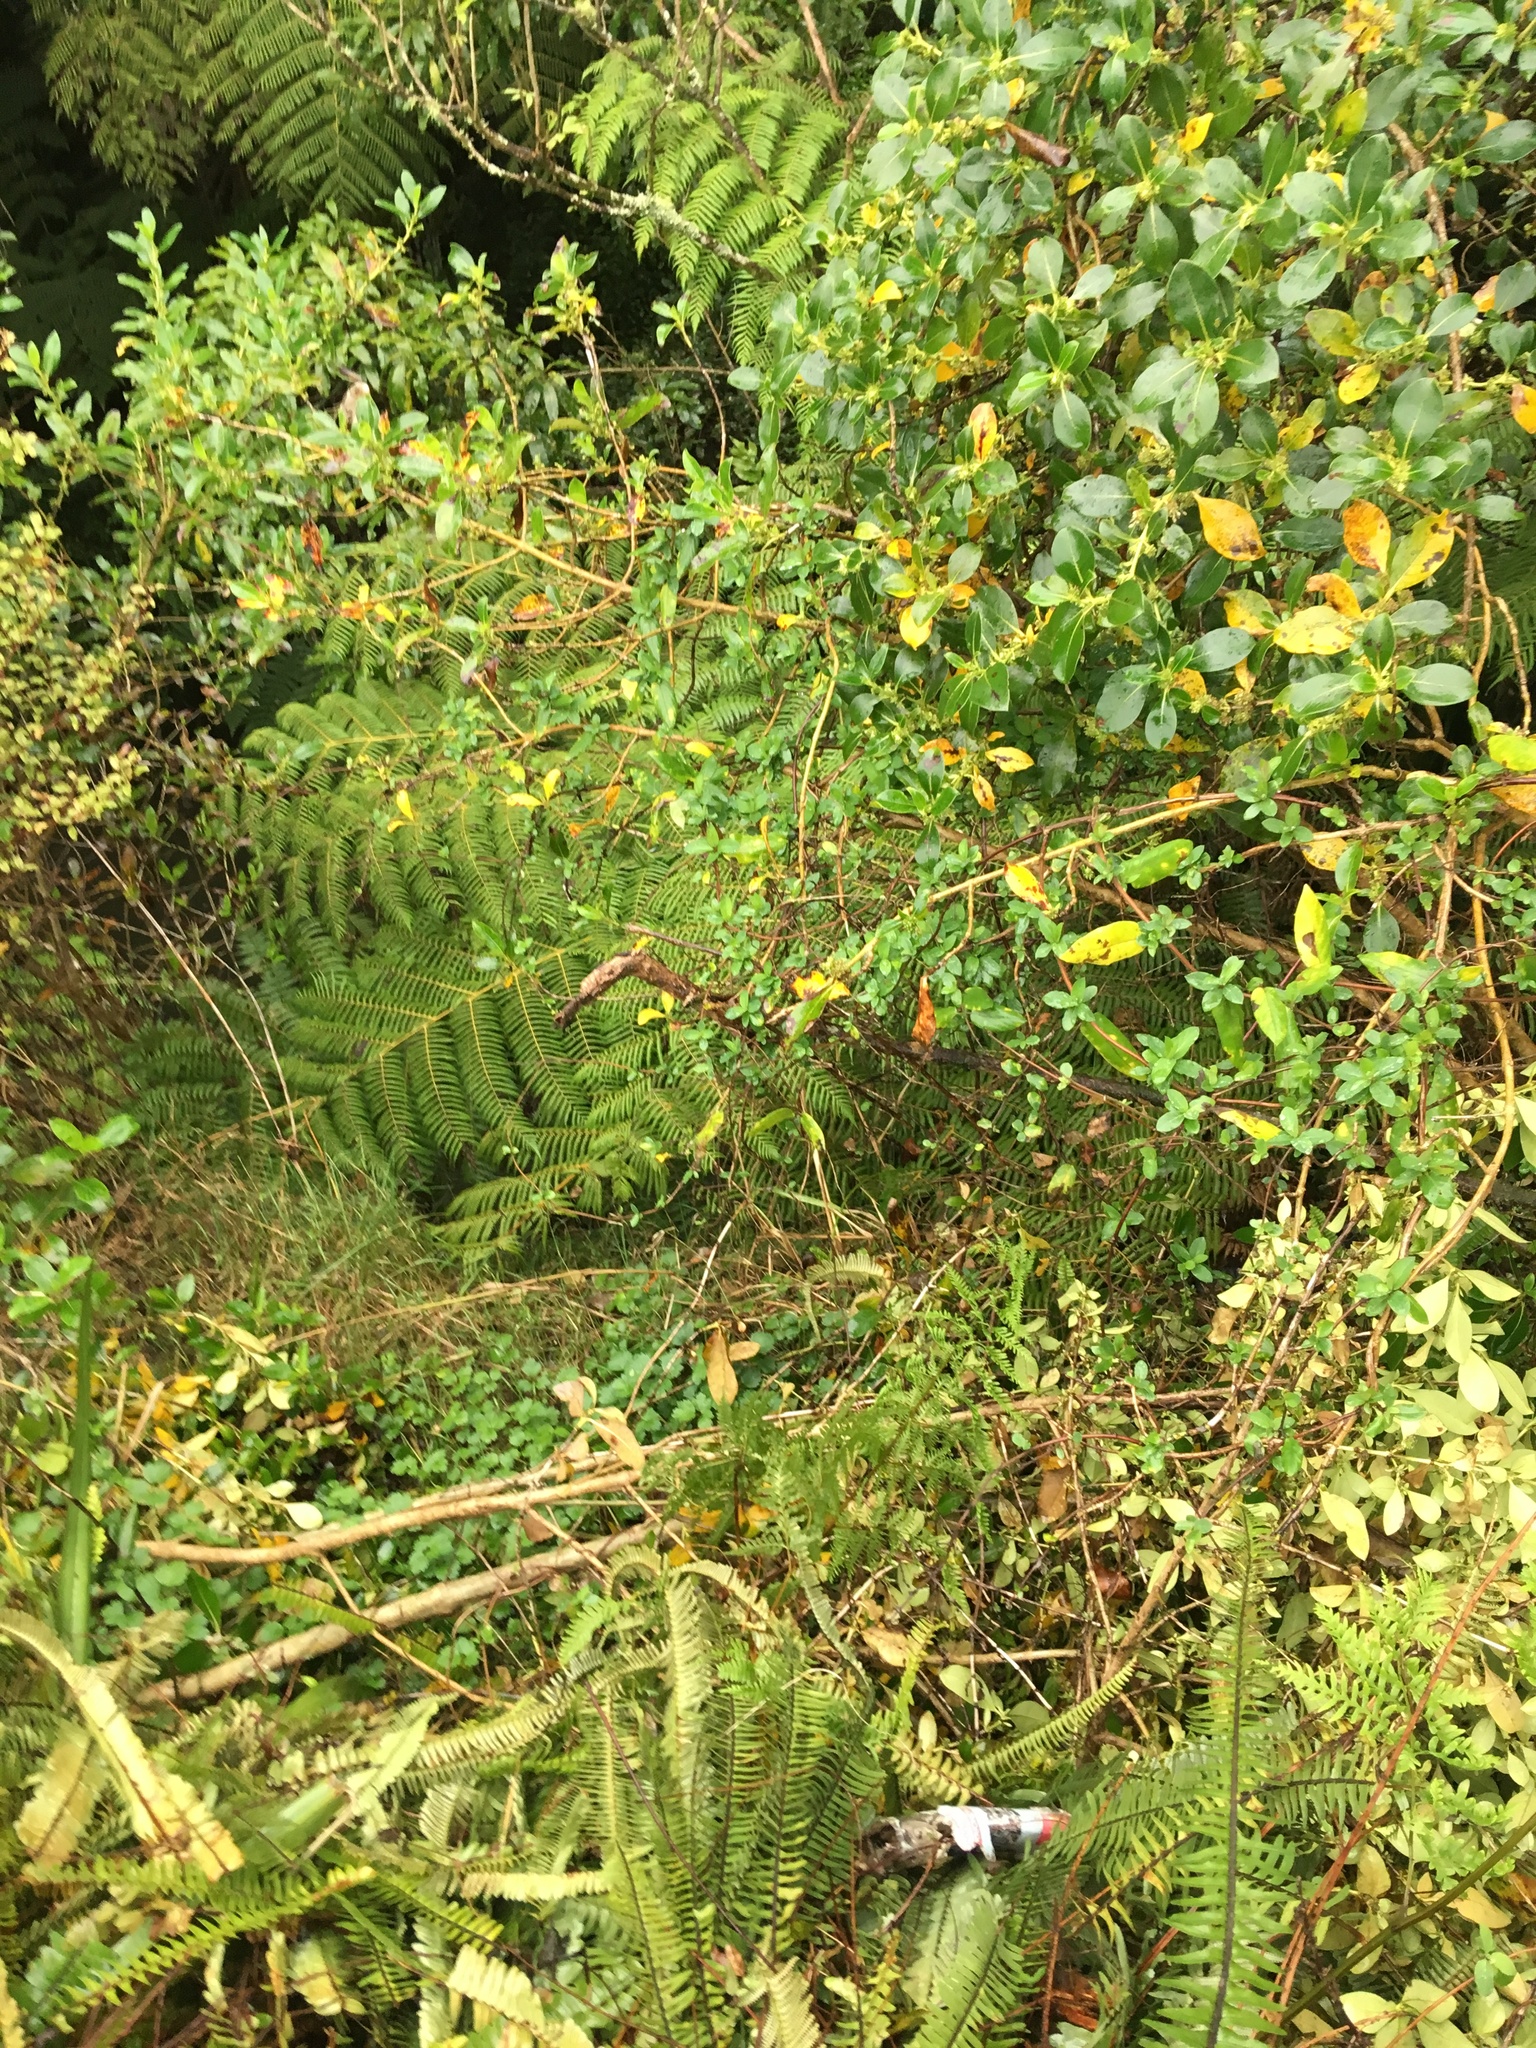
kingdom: Plantae
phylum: Tracheophyta
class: Magnoliopsida
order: Dipsacales
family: Caprifoliaceae
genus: Lonicera
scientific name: Lonicera japonica
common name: Japanese honeysuckle
